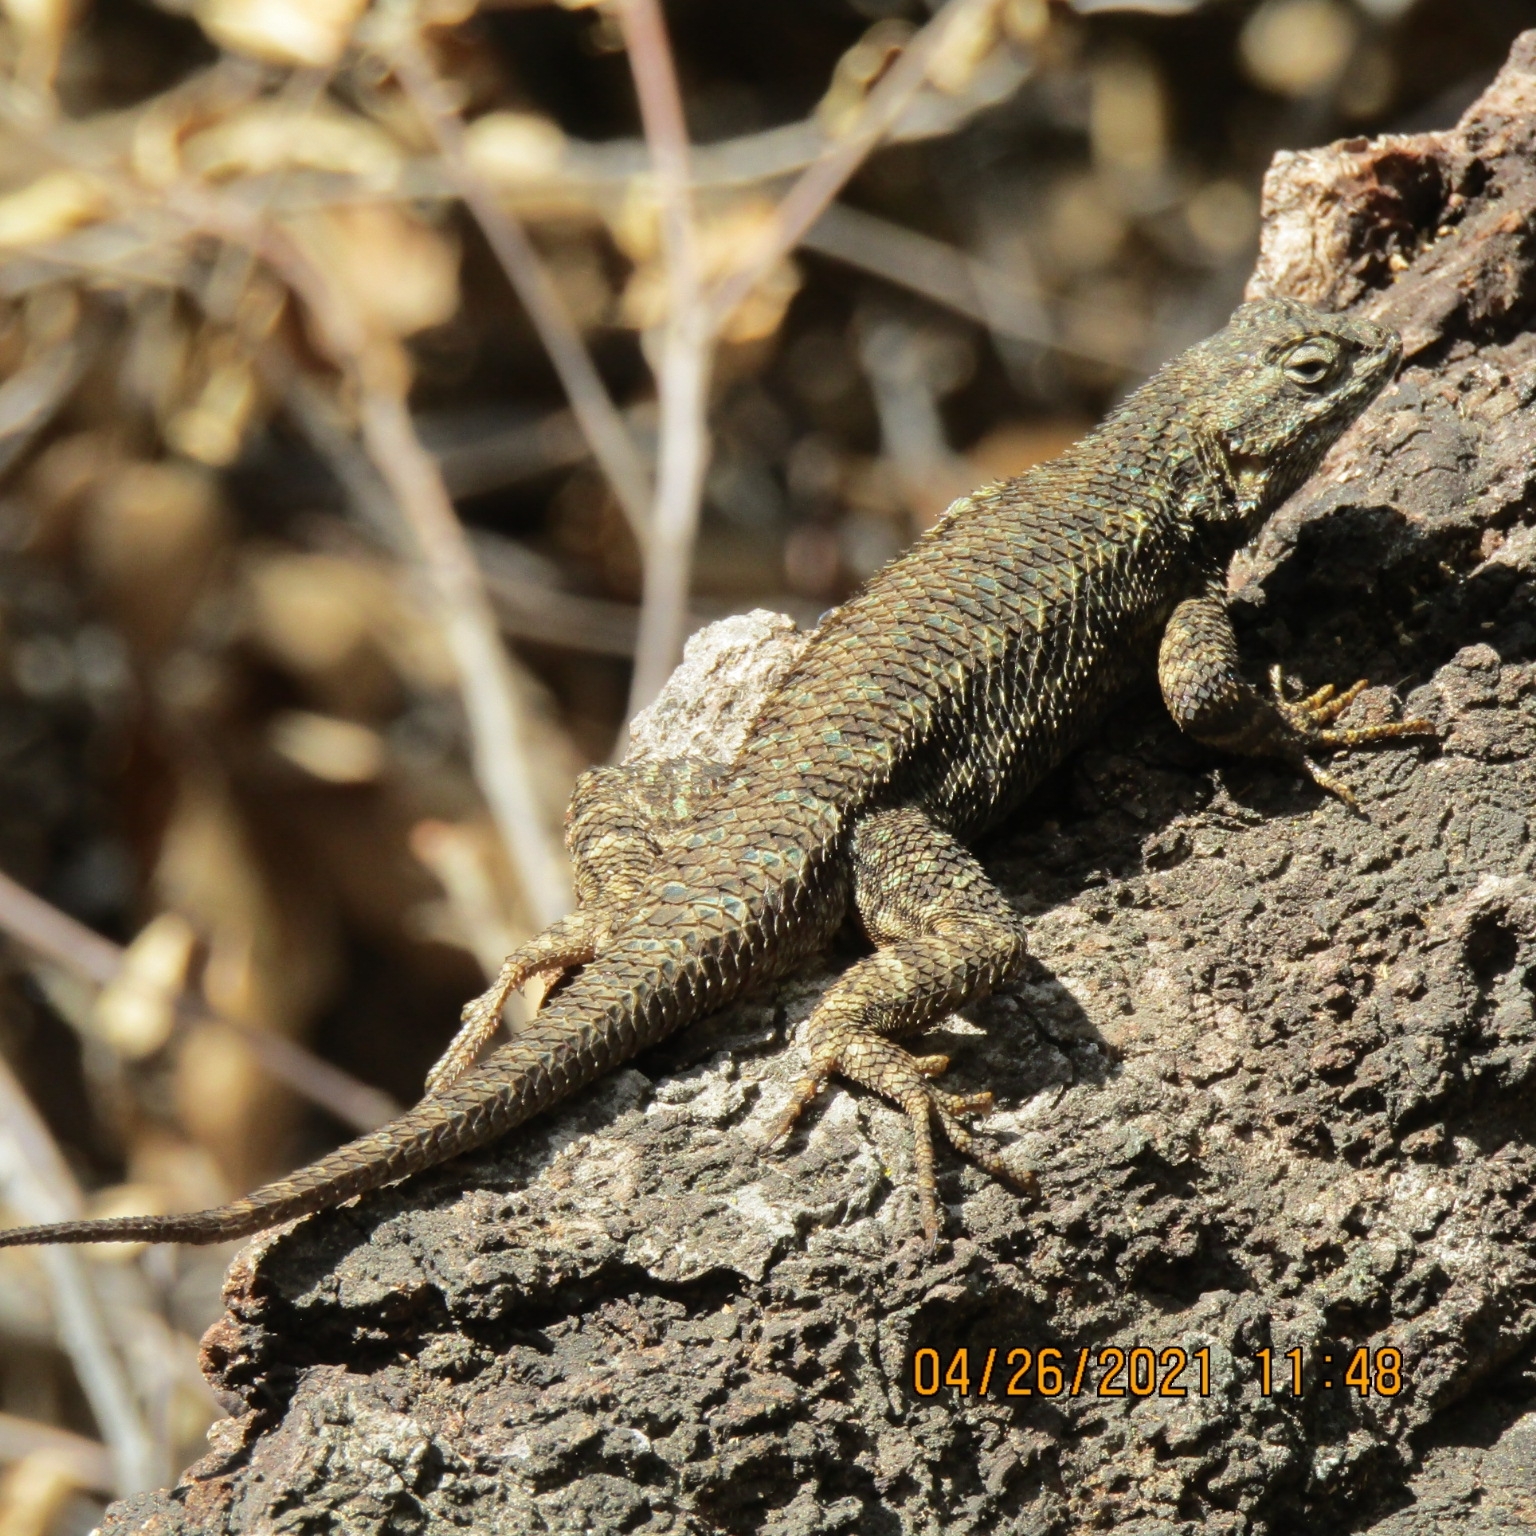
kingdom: Animalia
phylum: Chordata
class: Squamata
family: Phrynosomatidae
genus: Sceloporus
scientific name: Sceloporus occidentalis
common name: Western fence lizard
